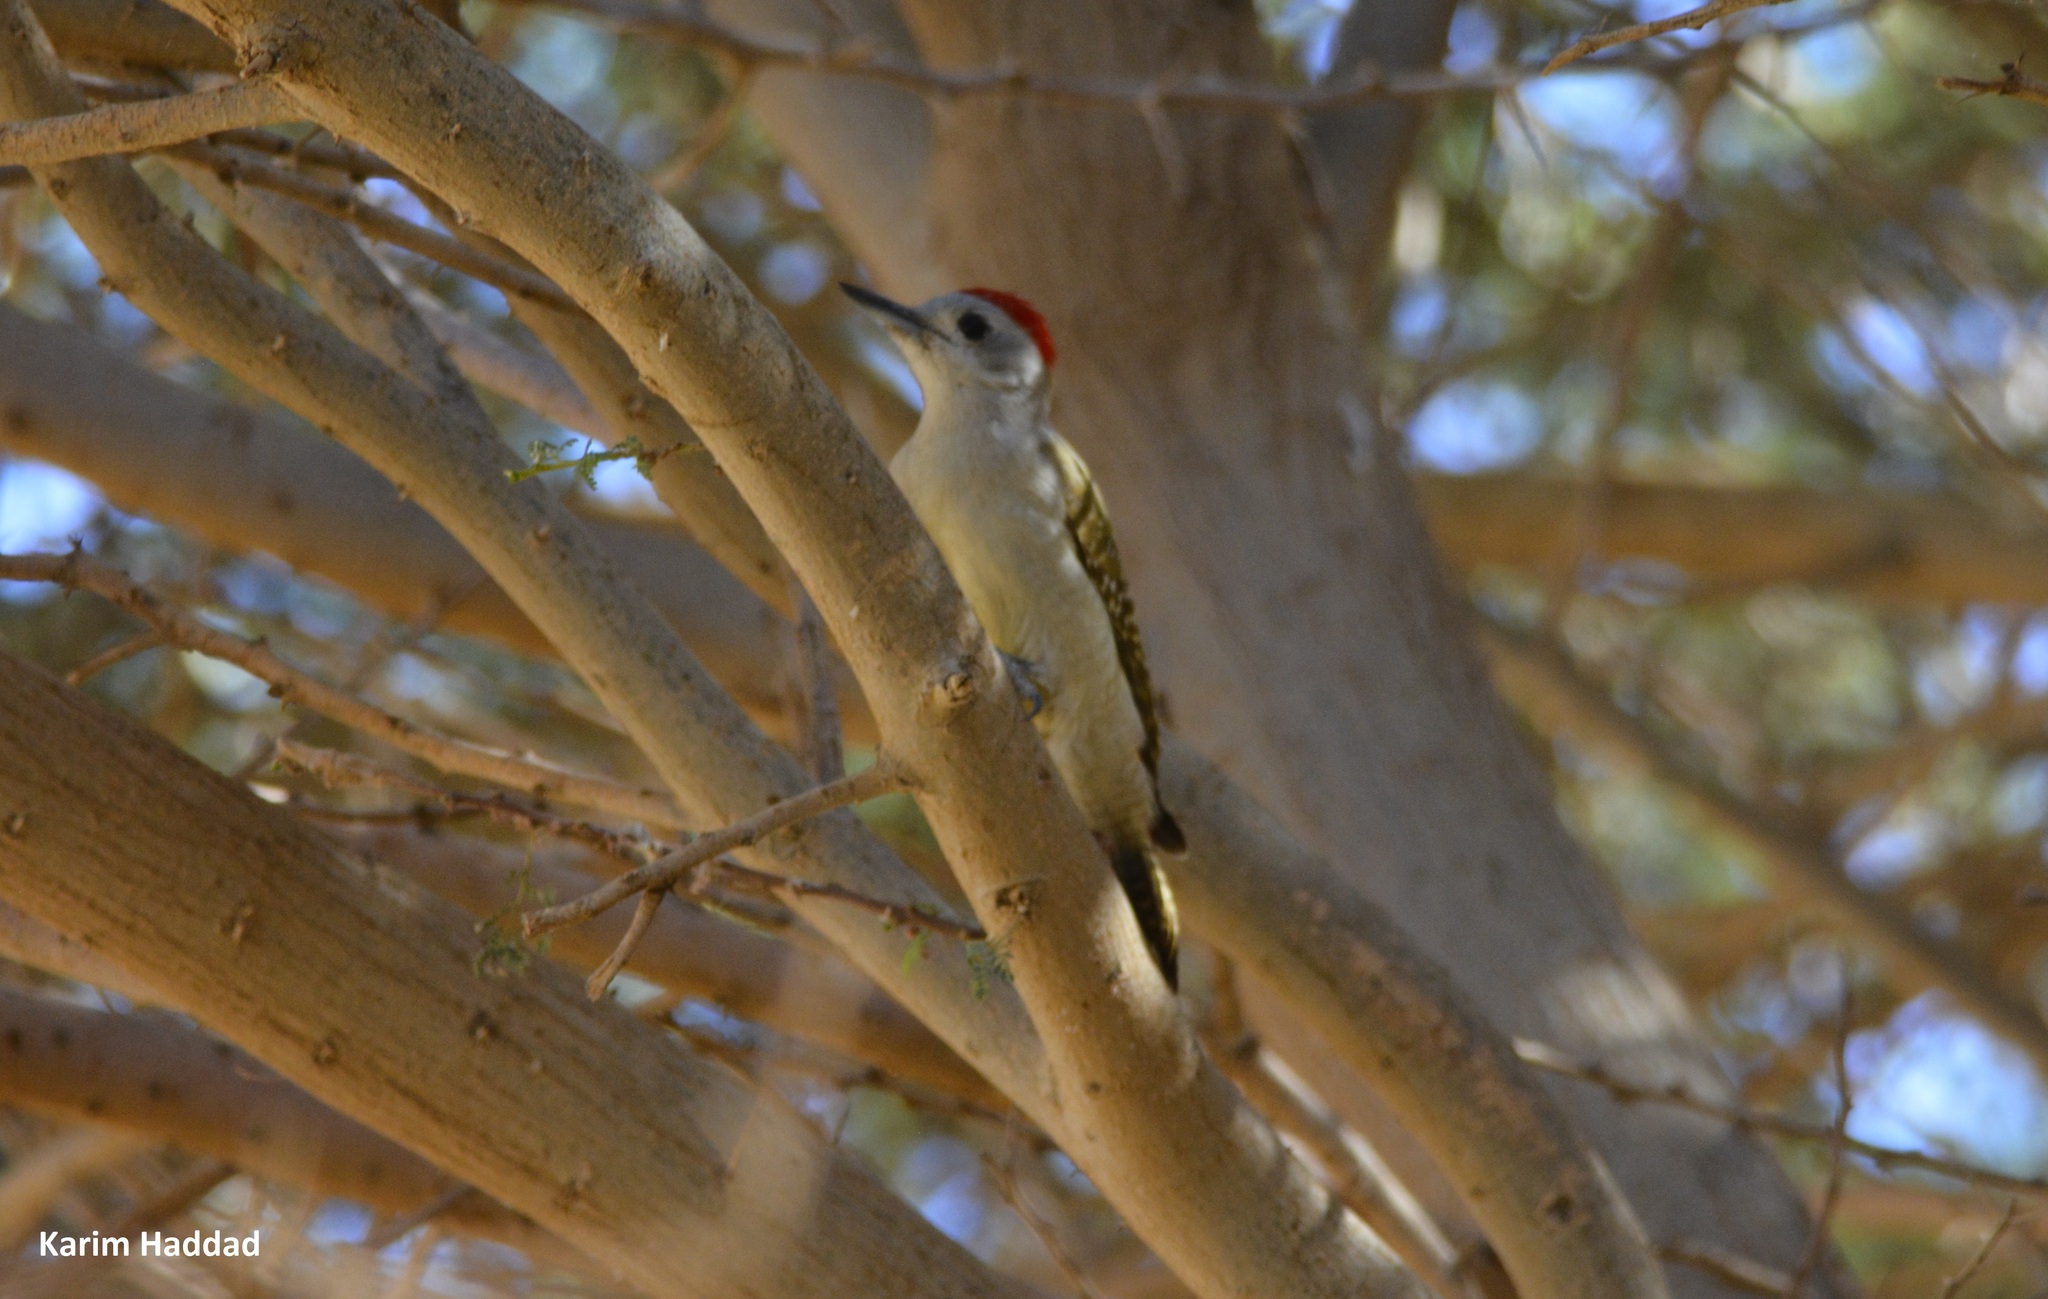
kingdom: Animalia
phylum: Chordata
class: Aves
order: Piciformes
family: Picidae
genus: Dendropicos
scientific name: Dendropicos goertae
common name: African grey woodpecker
